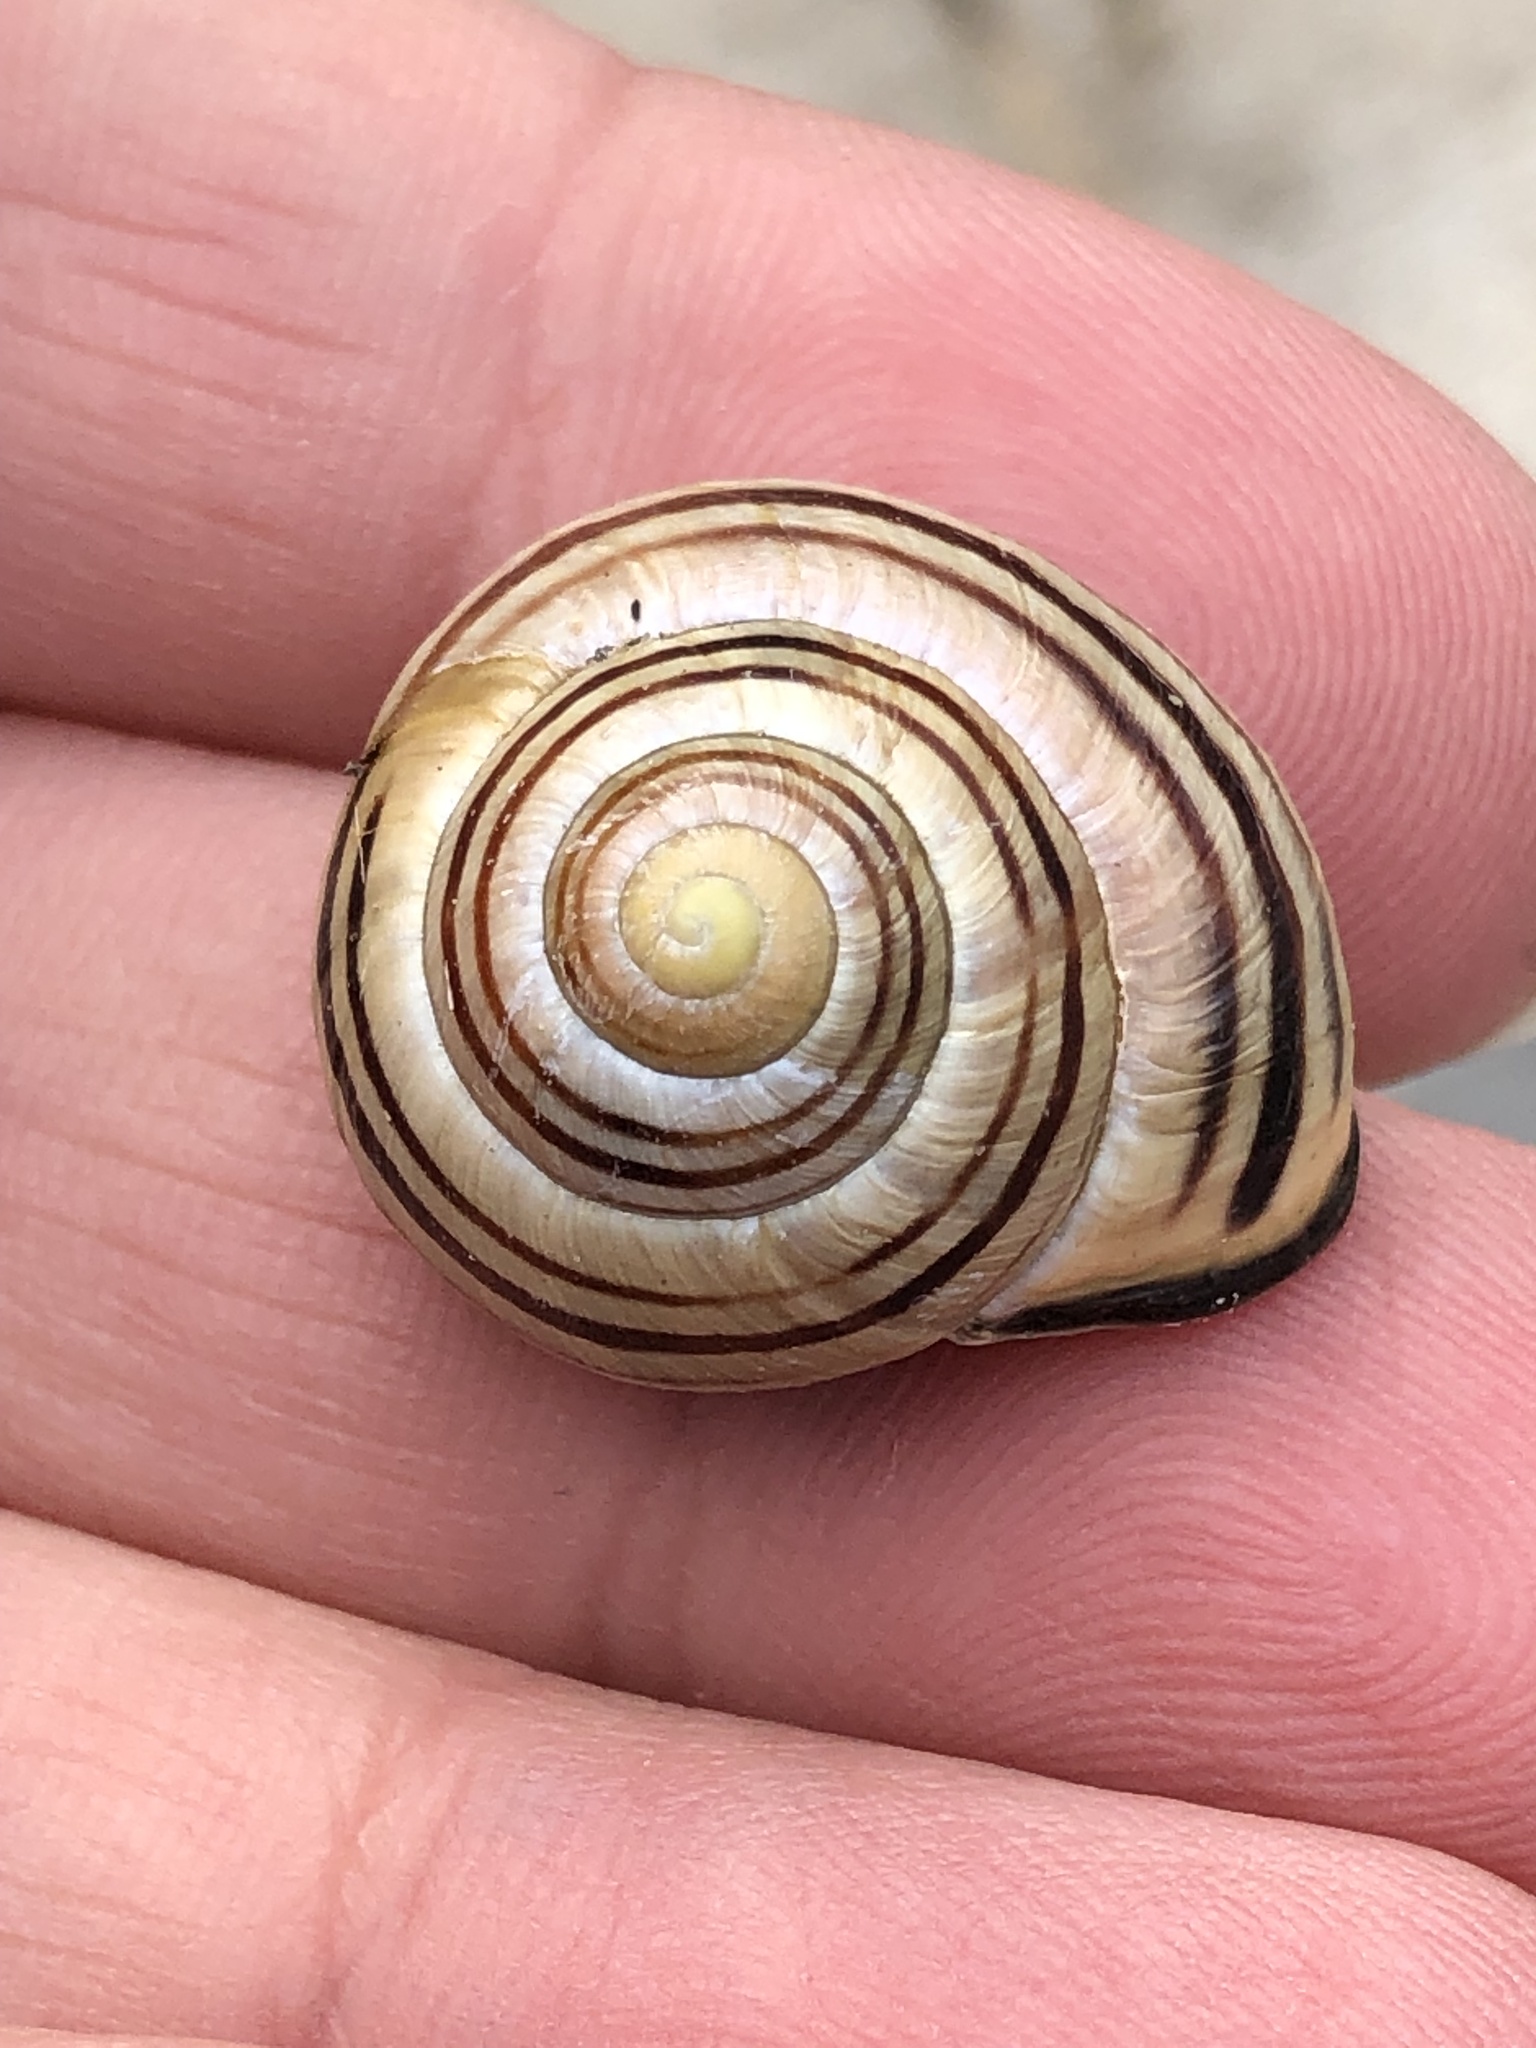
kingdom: Animalia
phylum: Mollusca
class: Gastropoda
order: Stylommatophora
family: Helicidae
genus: Cepaea
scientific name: Cepaea nemoralis
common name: Grovesnail
